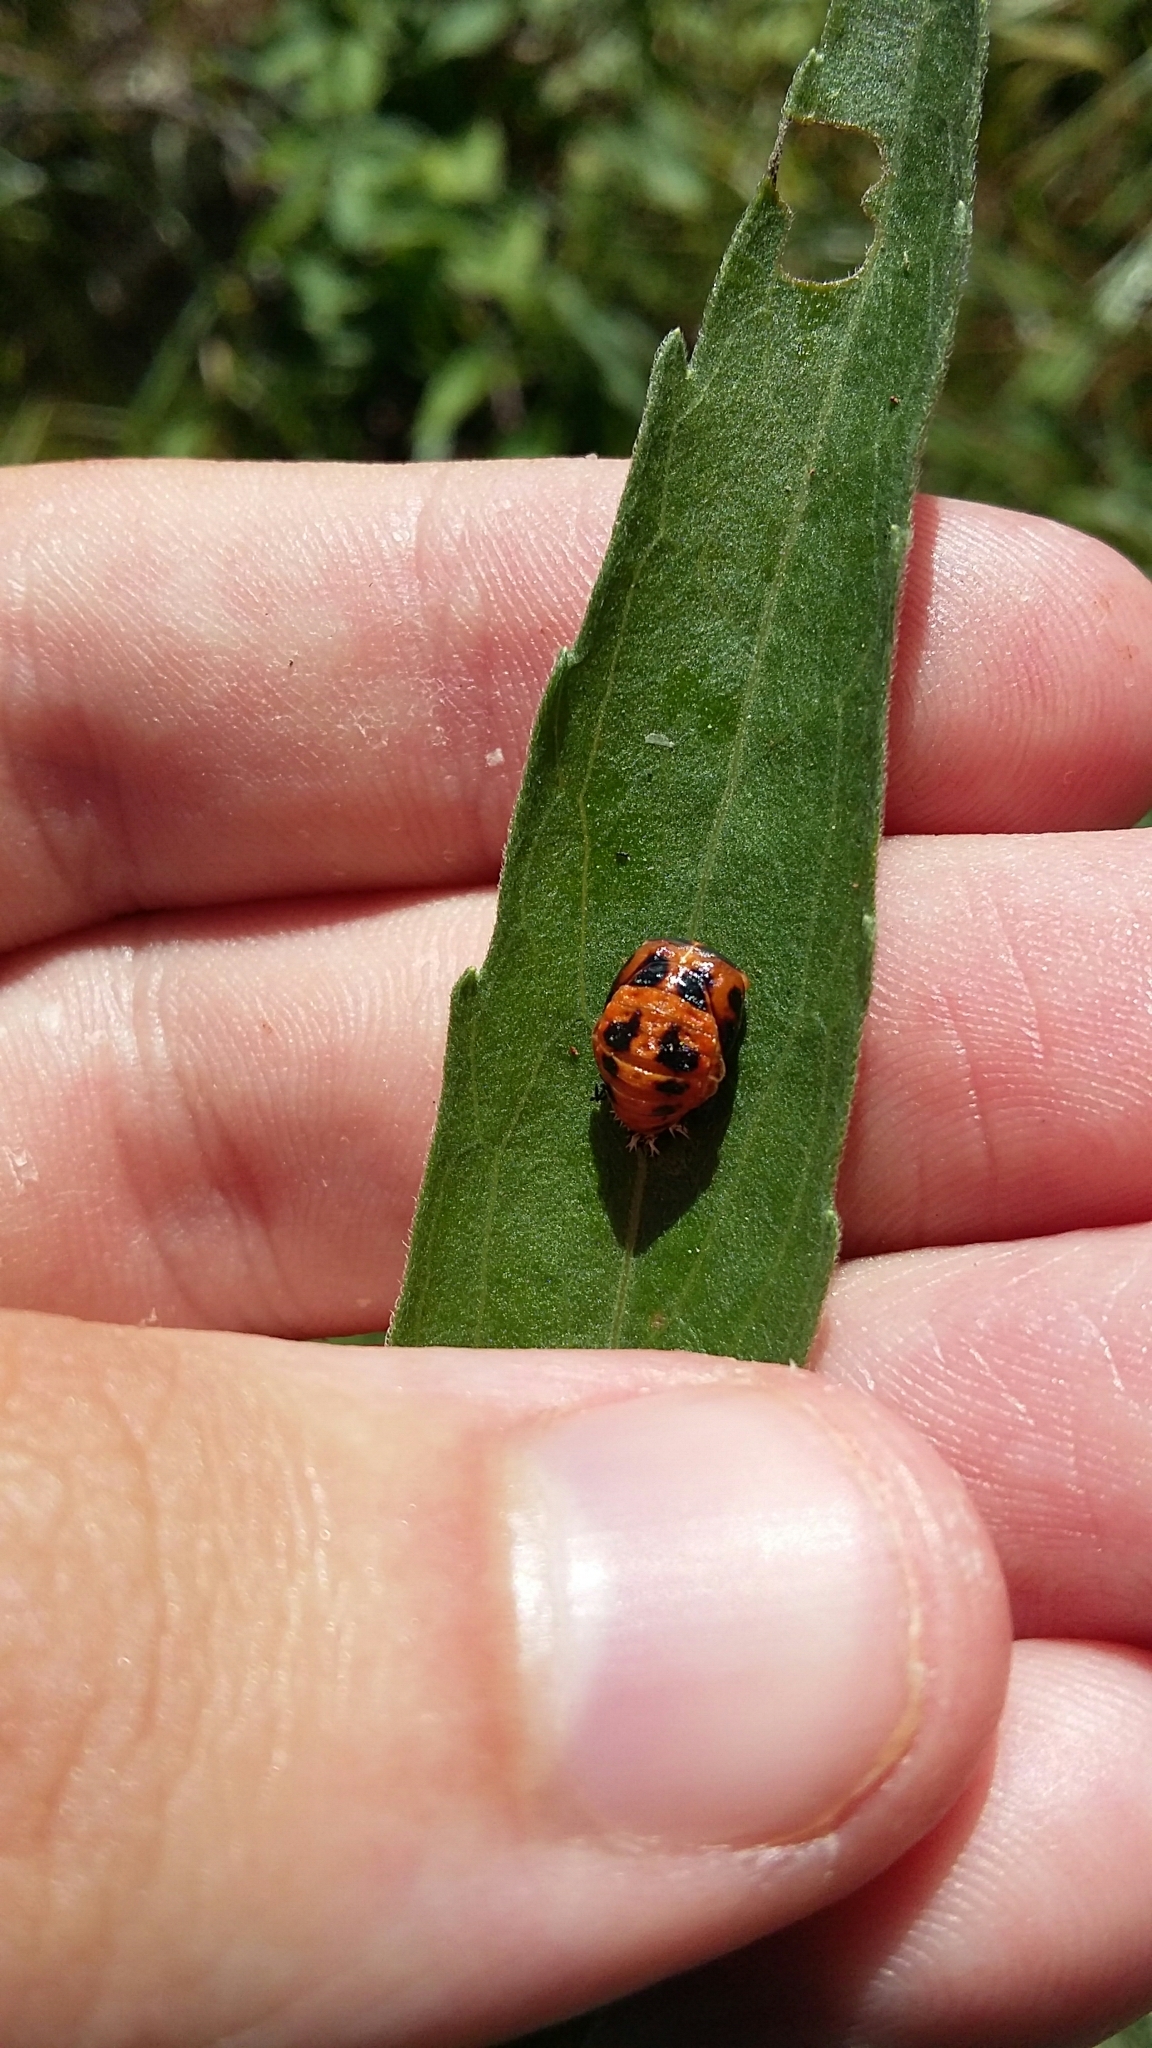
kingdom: Animalia
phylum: Arthropoda
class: Insecta
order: Coleoptera
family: Coccinellidae
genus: Harmonia
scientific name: Harmonia axyridis
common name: Harlequin ladybird
